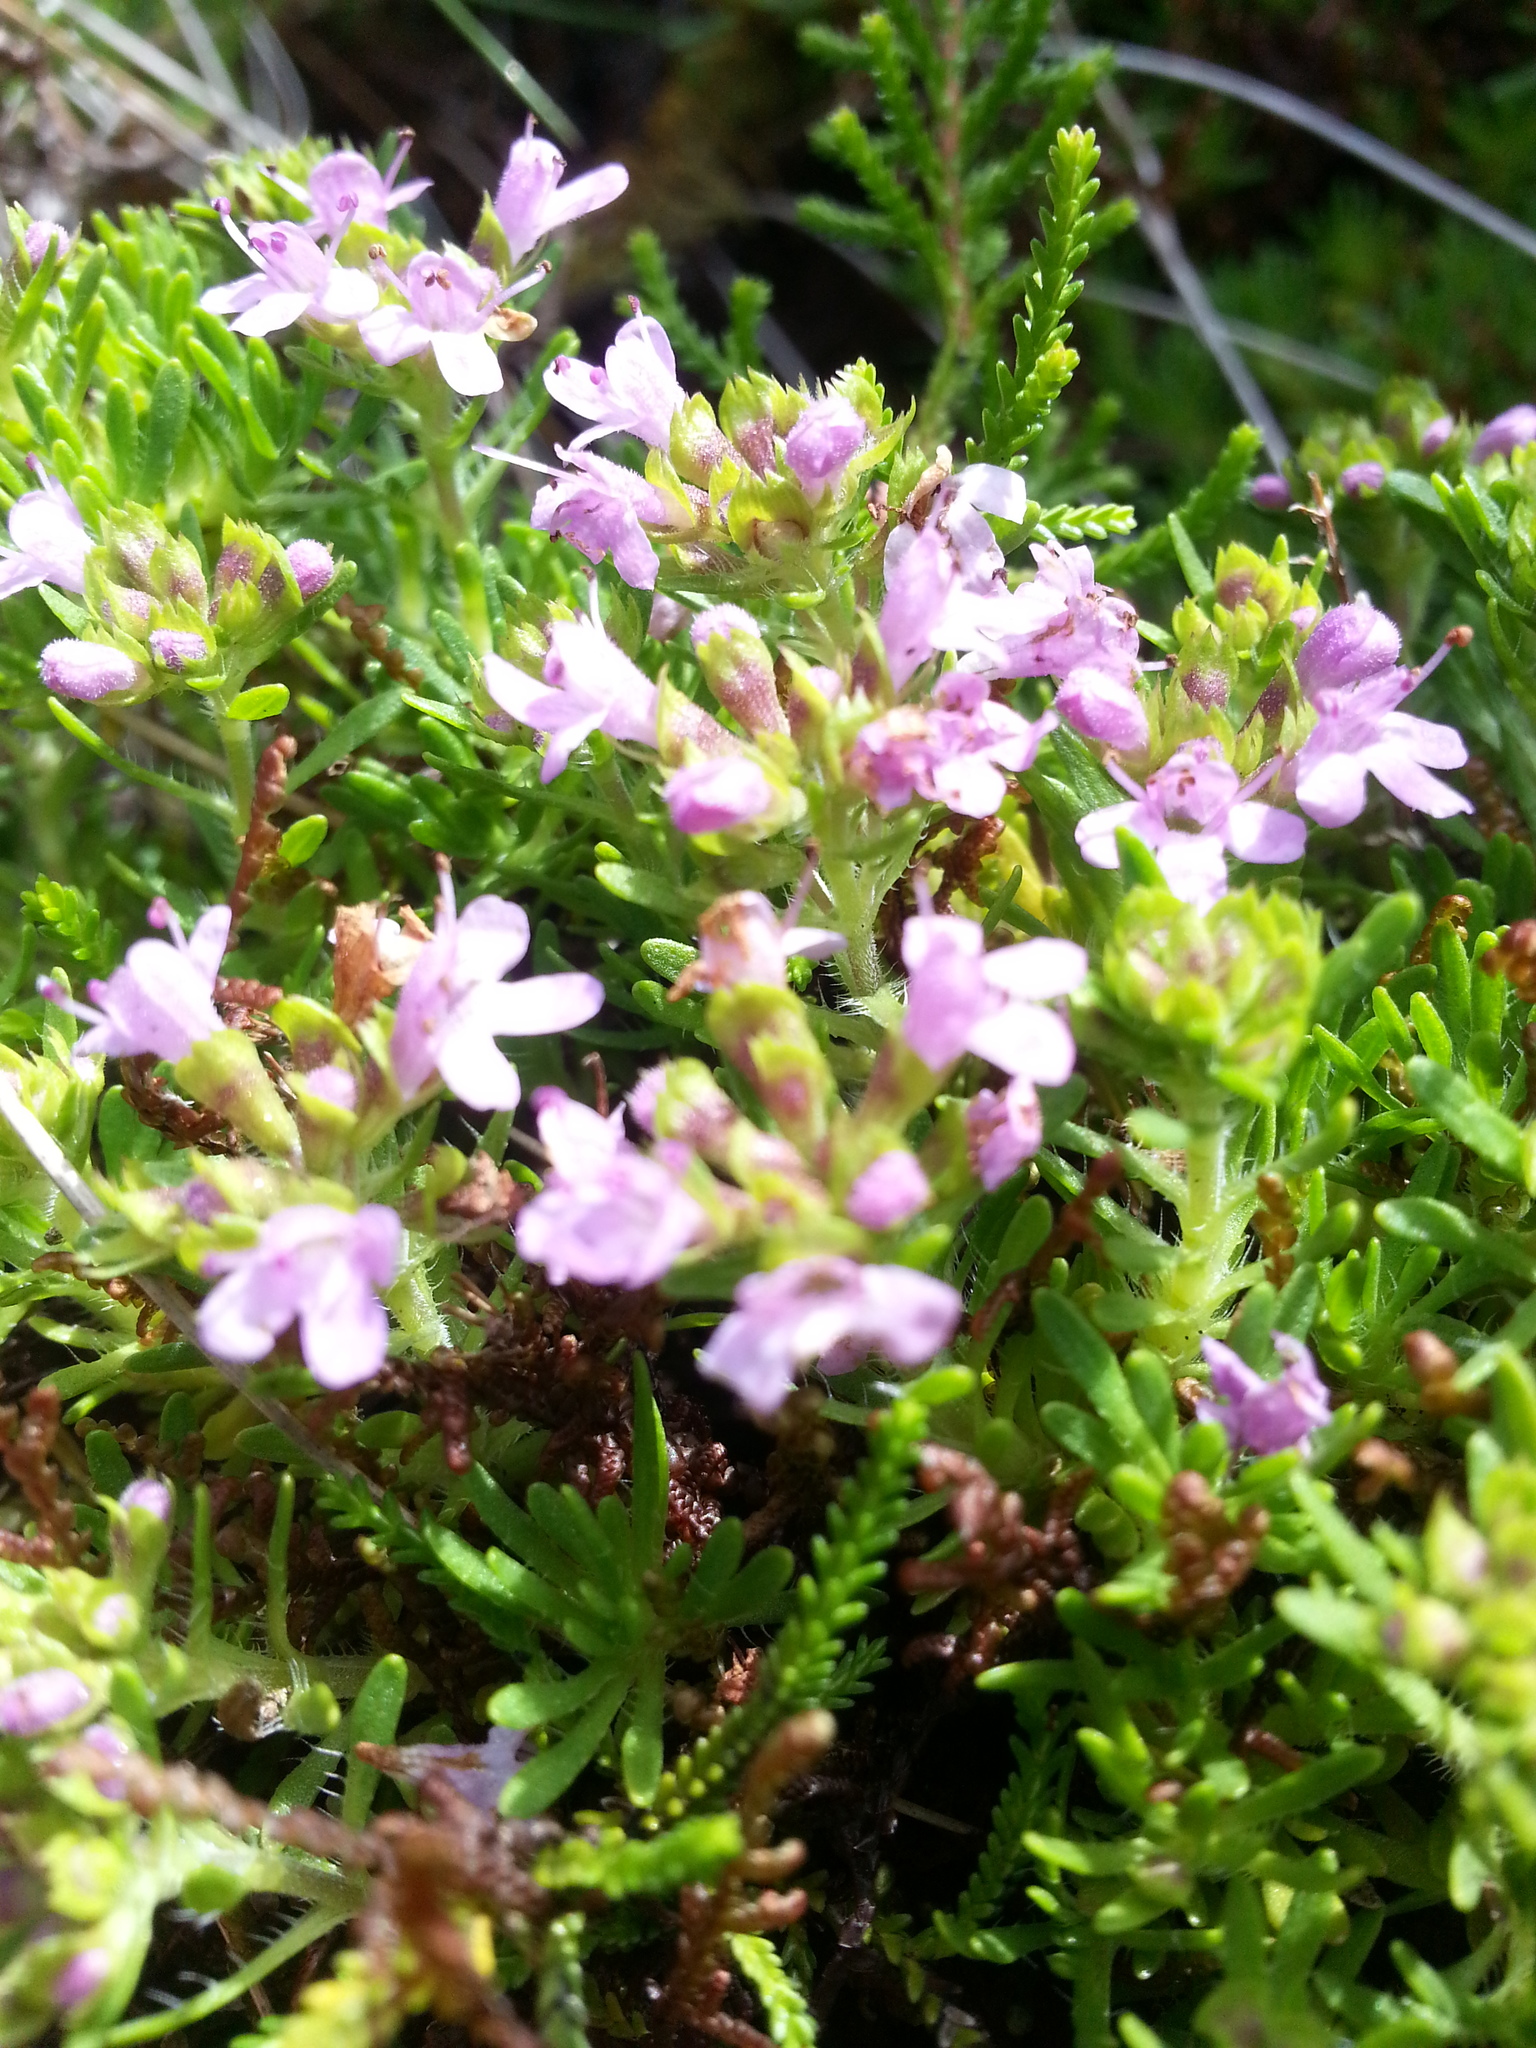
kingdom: Plantae
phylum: Tracheophyta
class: Magnoliopsida
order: Lamiales
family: Lamiaceae
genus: Thymus
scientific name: Thymus caespititius
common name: Azores thyme
